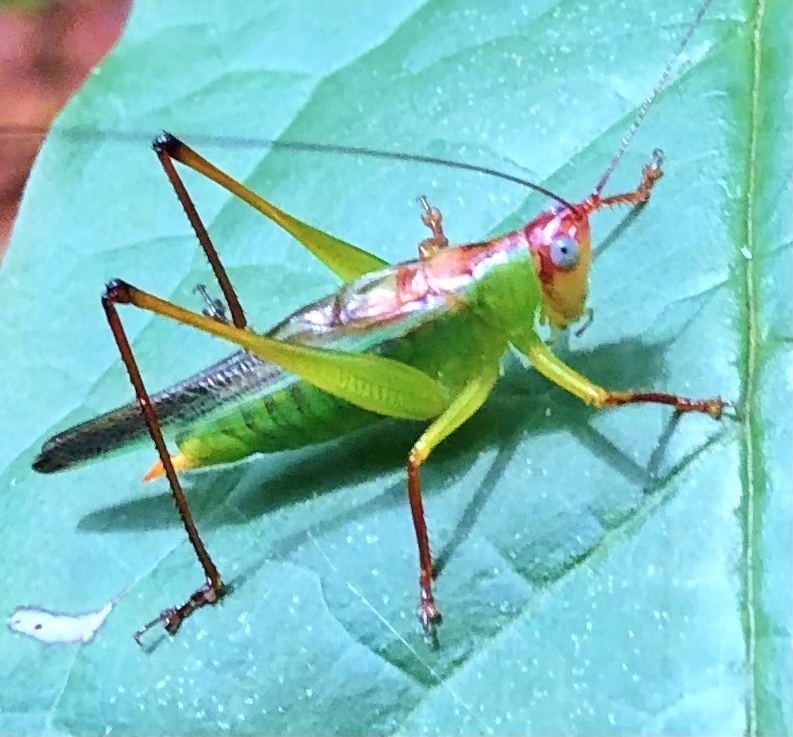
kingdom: Animalia
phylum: Arthropoda
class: Insecta
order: Orthoptera
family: Tettigoniidae
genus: Orchelimum
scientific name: Orchelimum pulchellum
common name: Handsome meadow katydid
